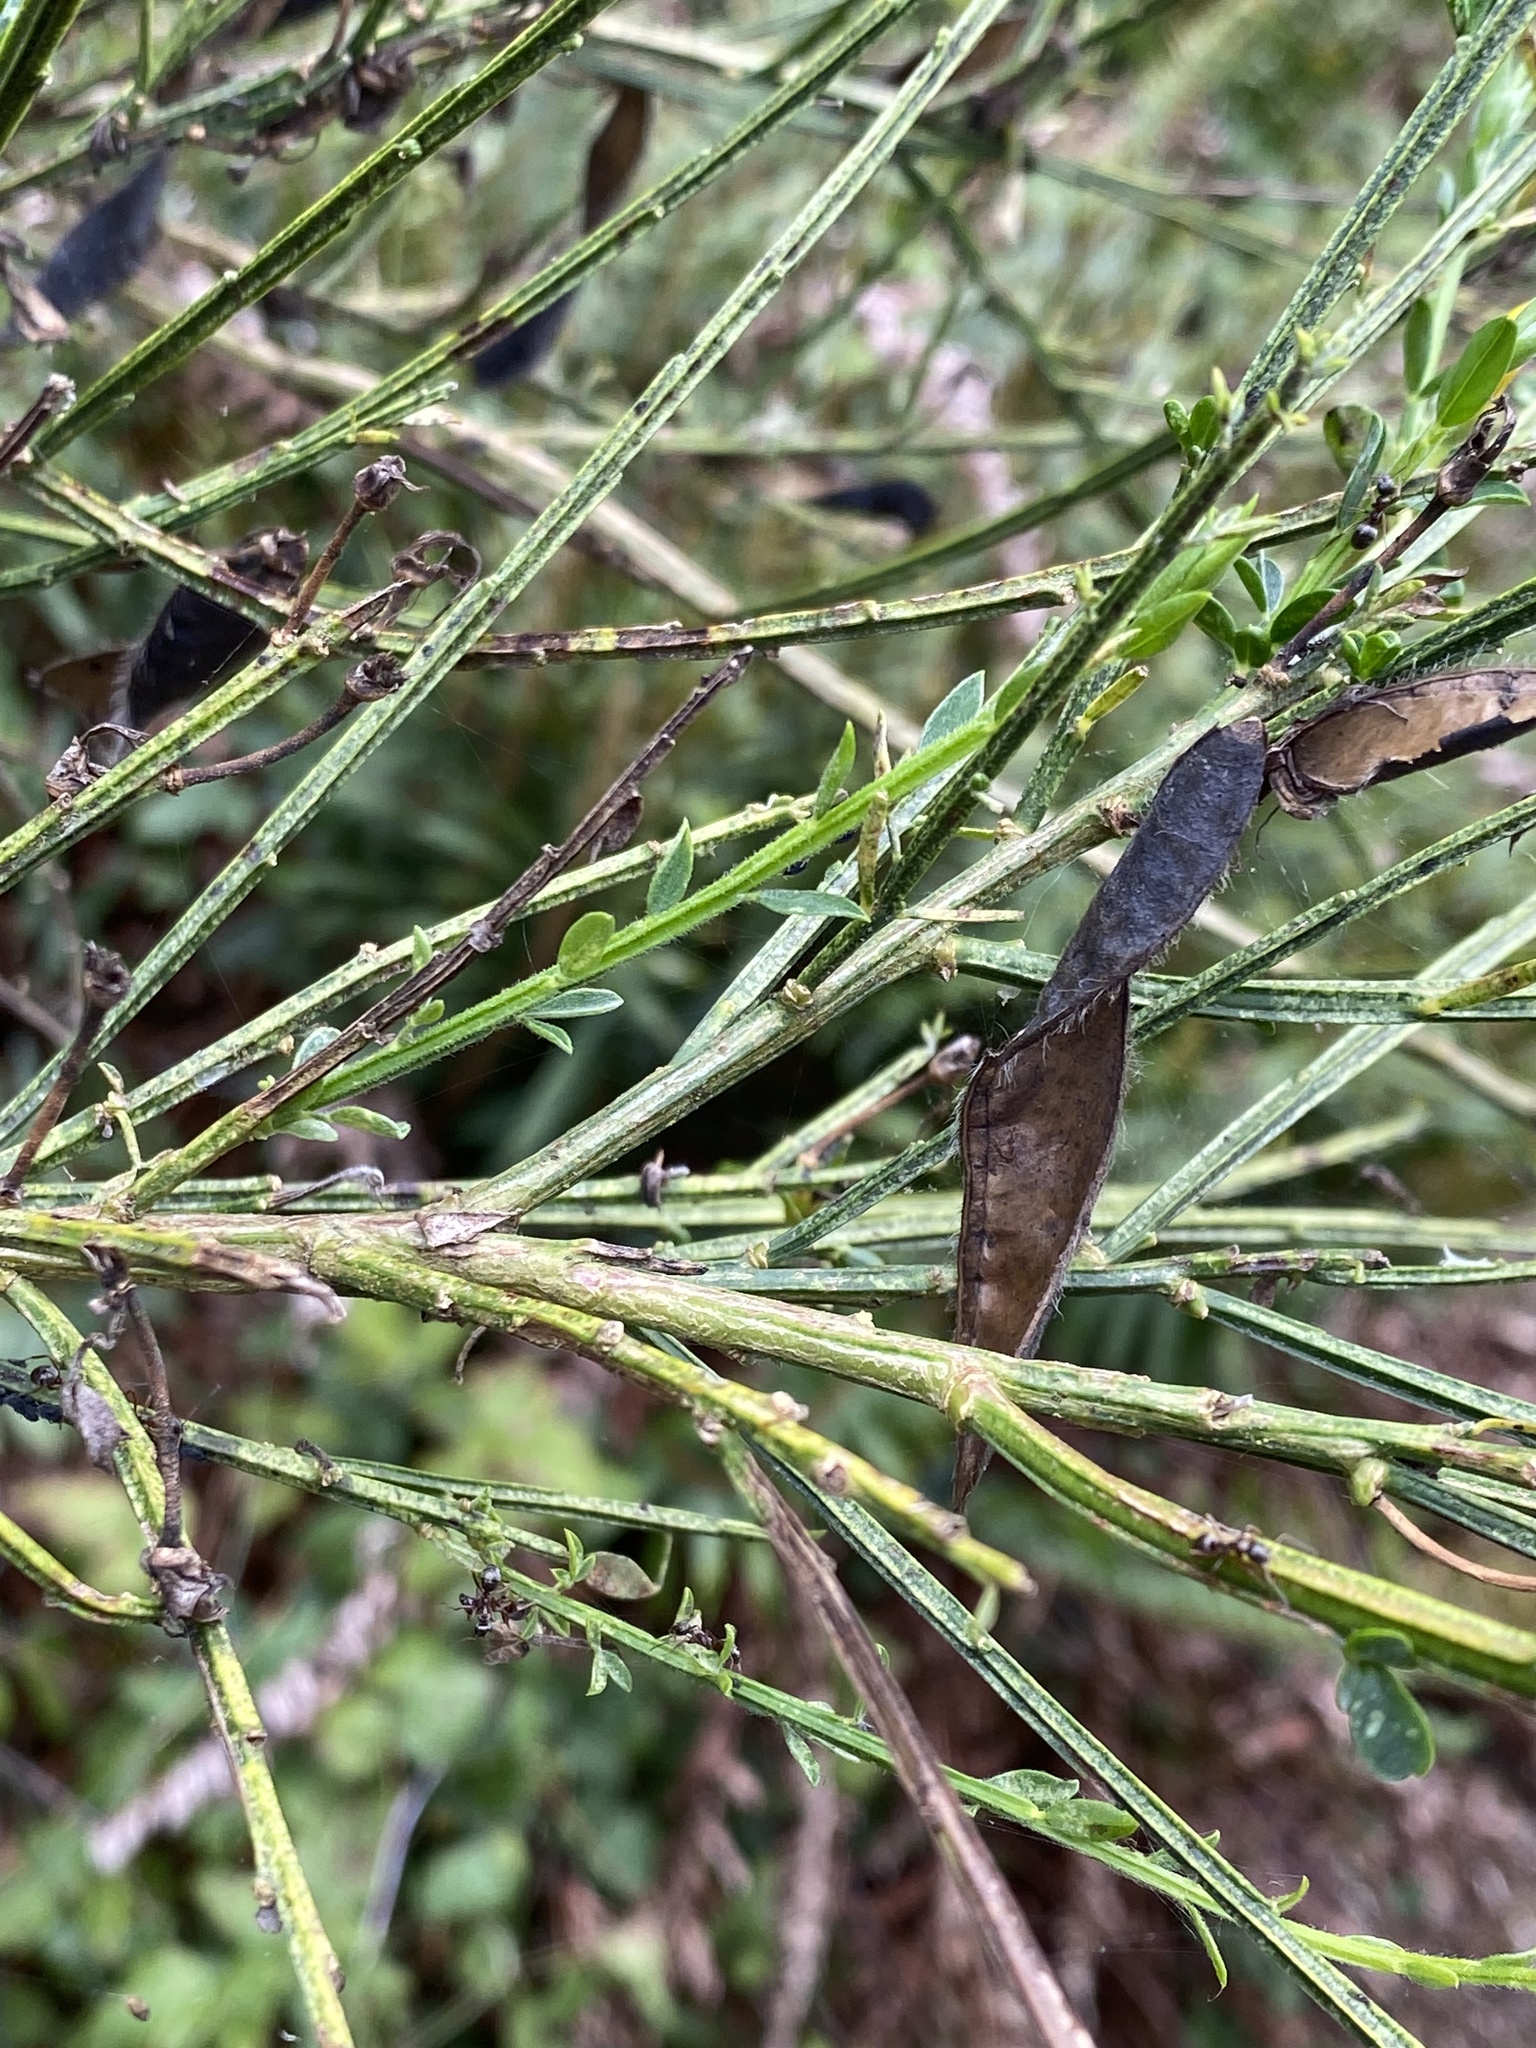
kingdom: Plantae
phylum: Tracheophyta
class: Magnoliopsida
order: Fabales
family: Fabaceae
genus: Cytisus
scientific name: Cytisus scoparius
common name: Scotch broom
